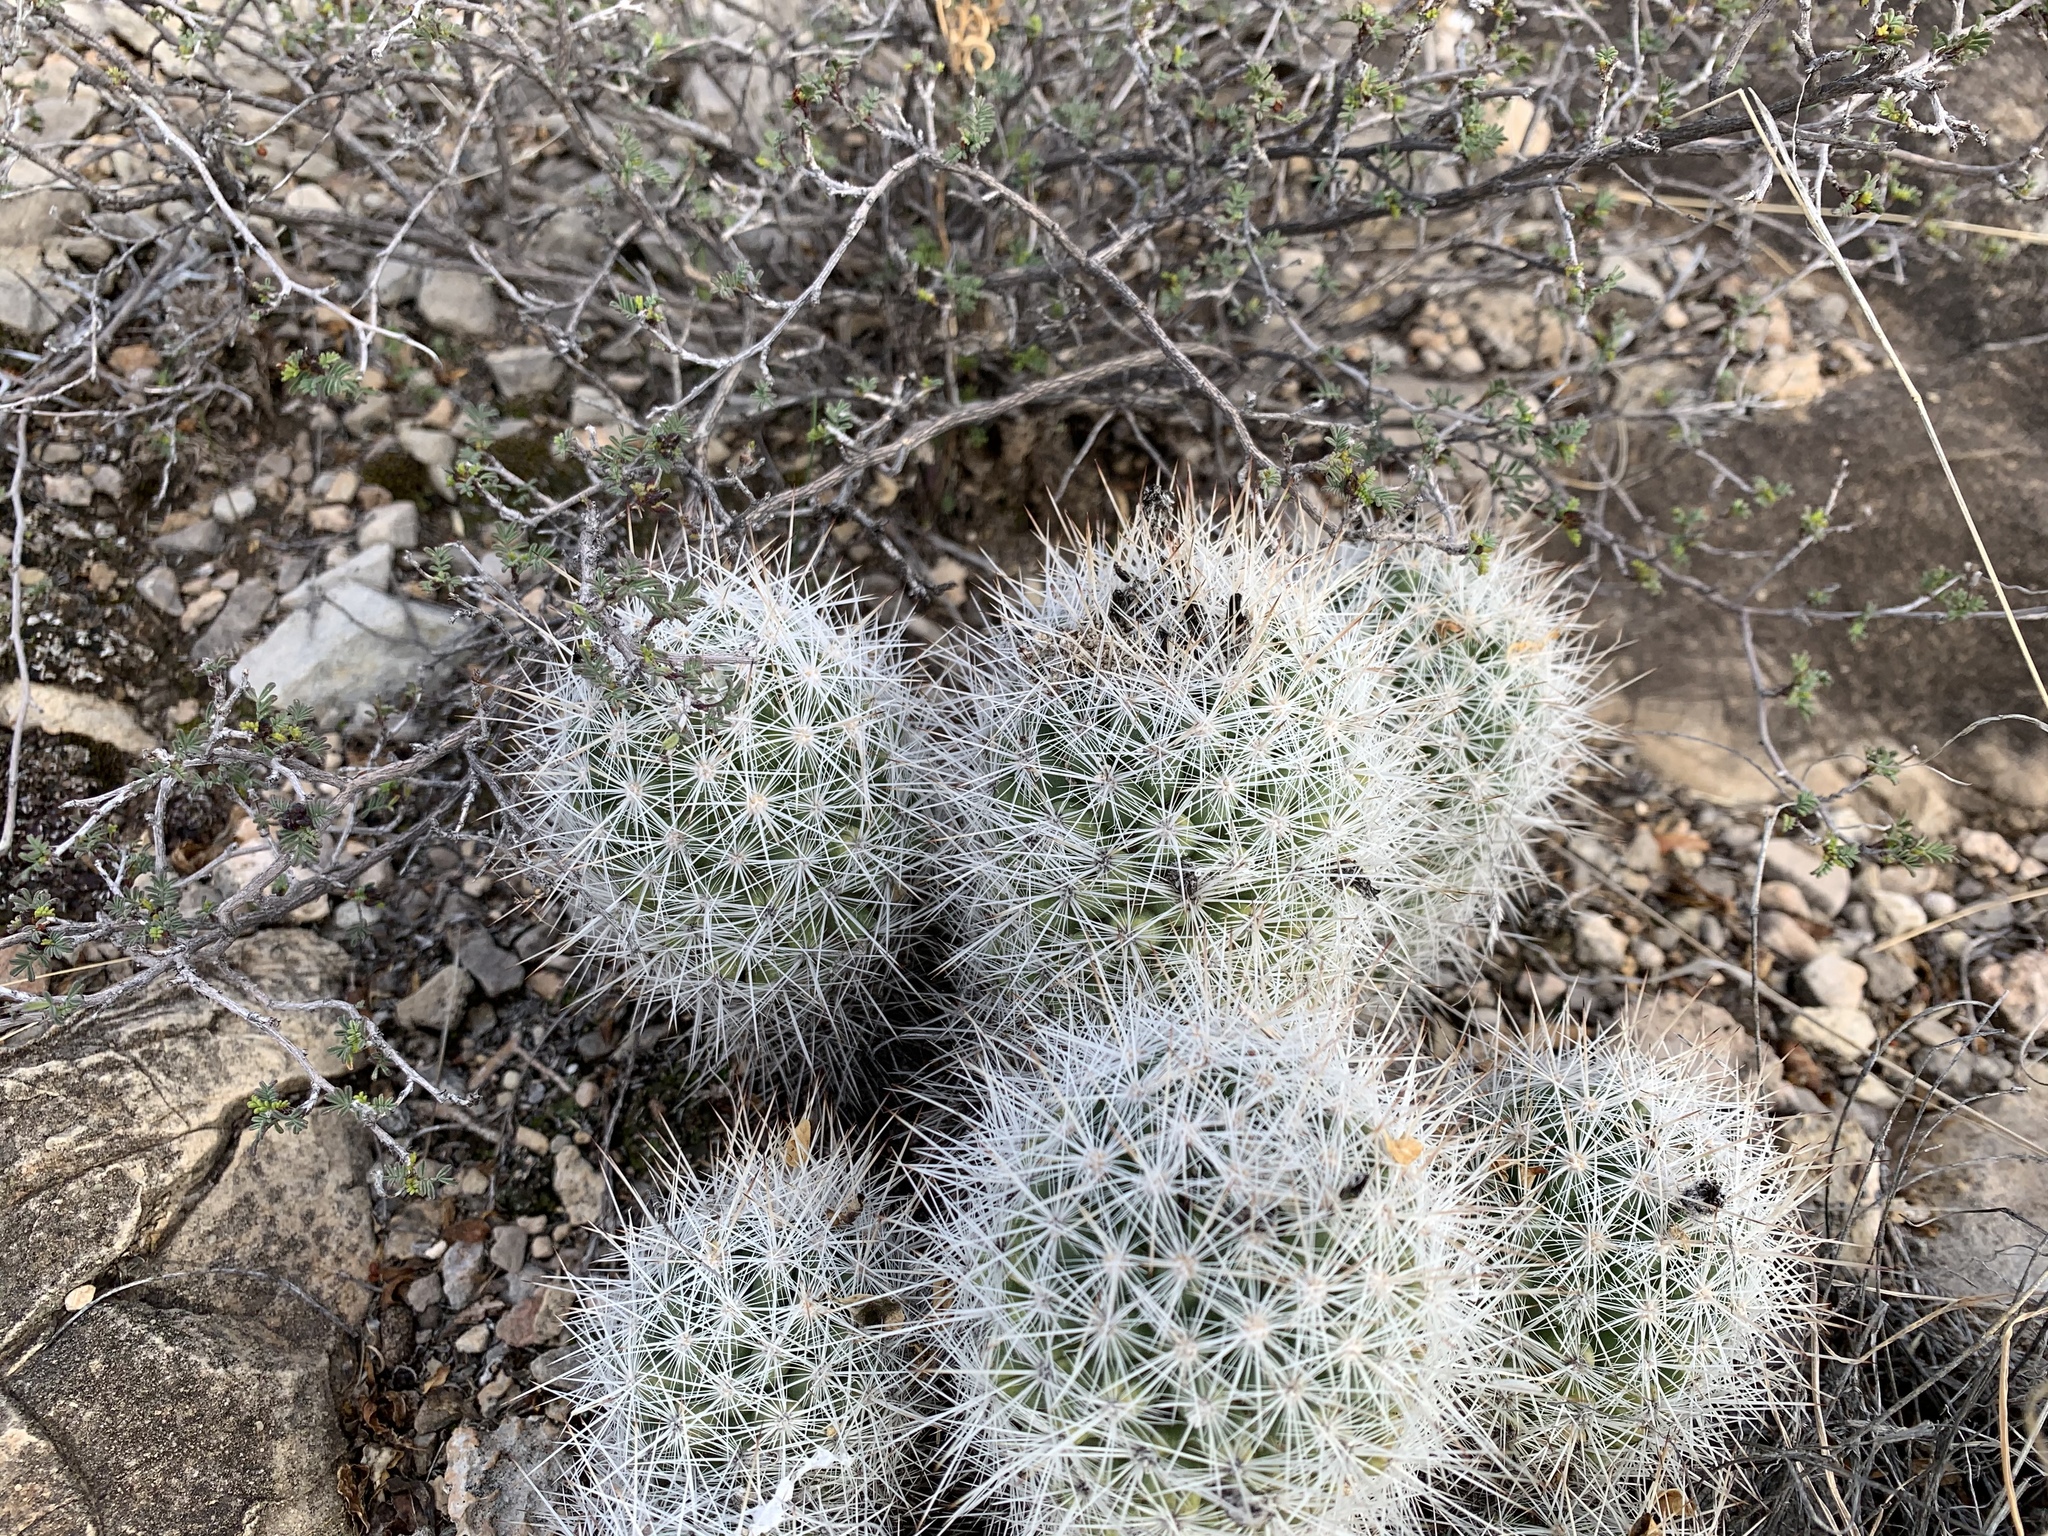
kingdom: Plantae
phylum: Tracheophyta
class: Magnoliopsida
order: Caryophyllales
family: Cactaceae
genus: Pelecyphora
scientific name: Pelecyphora sneedii
